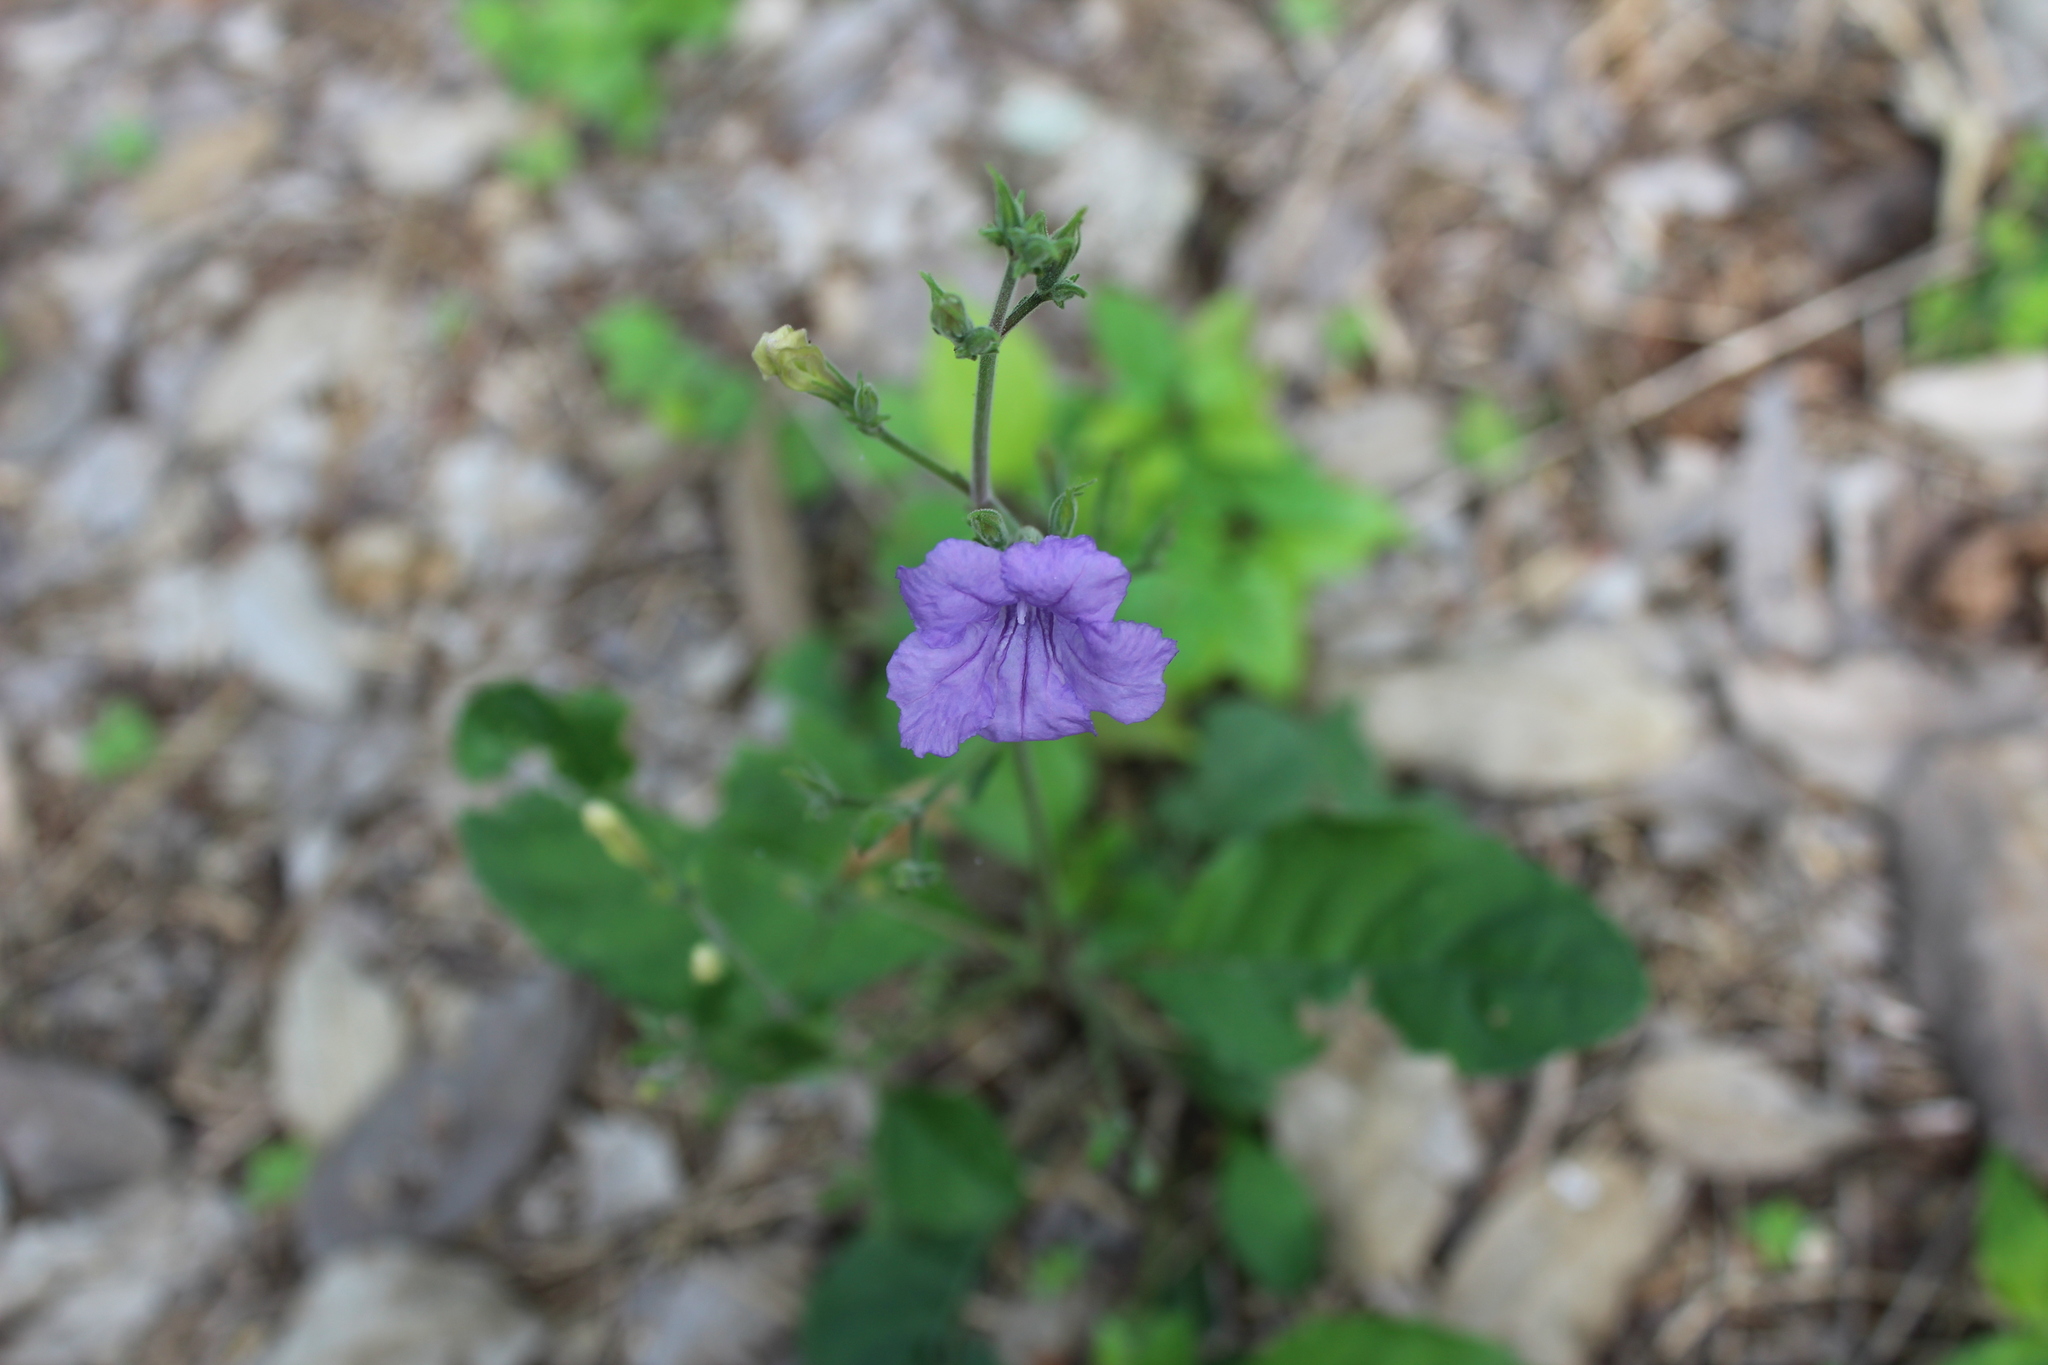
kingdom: Plantae
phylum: Tracheophyta
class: Magnoliopsida
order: Lamiales
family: Acanthaceae
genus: Ruellia
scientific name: Ruellia ciliatiflora
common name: Hairyflower wild petunia
